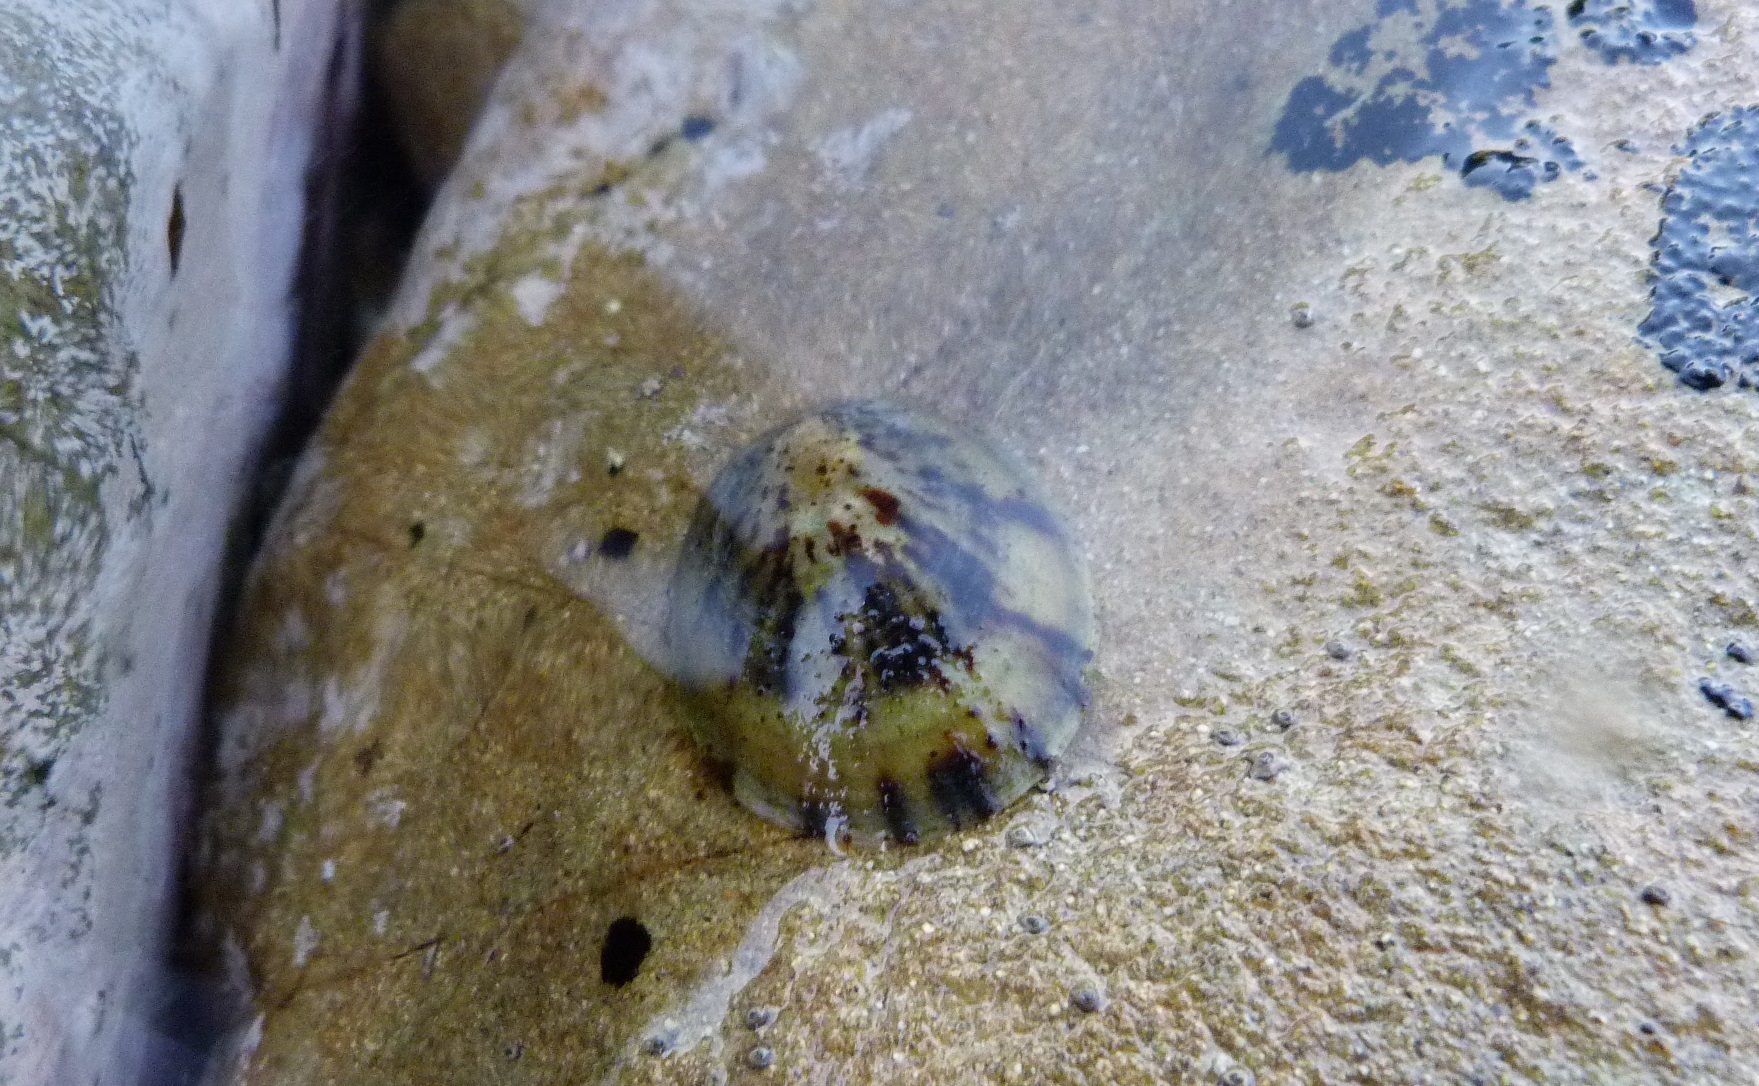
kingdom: Animalia
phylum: Mollusca
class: Gastropoda
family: Nacellidae
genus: Cellana
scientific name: Cellana radians
